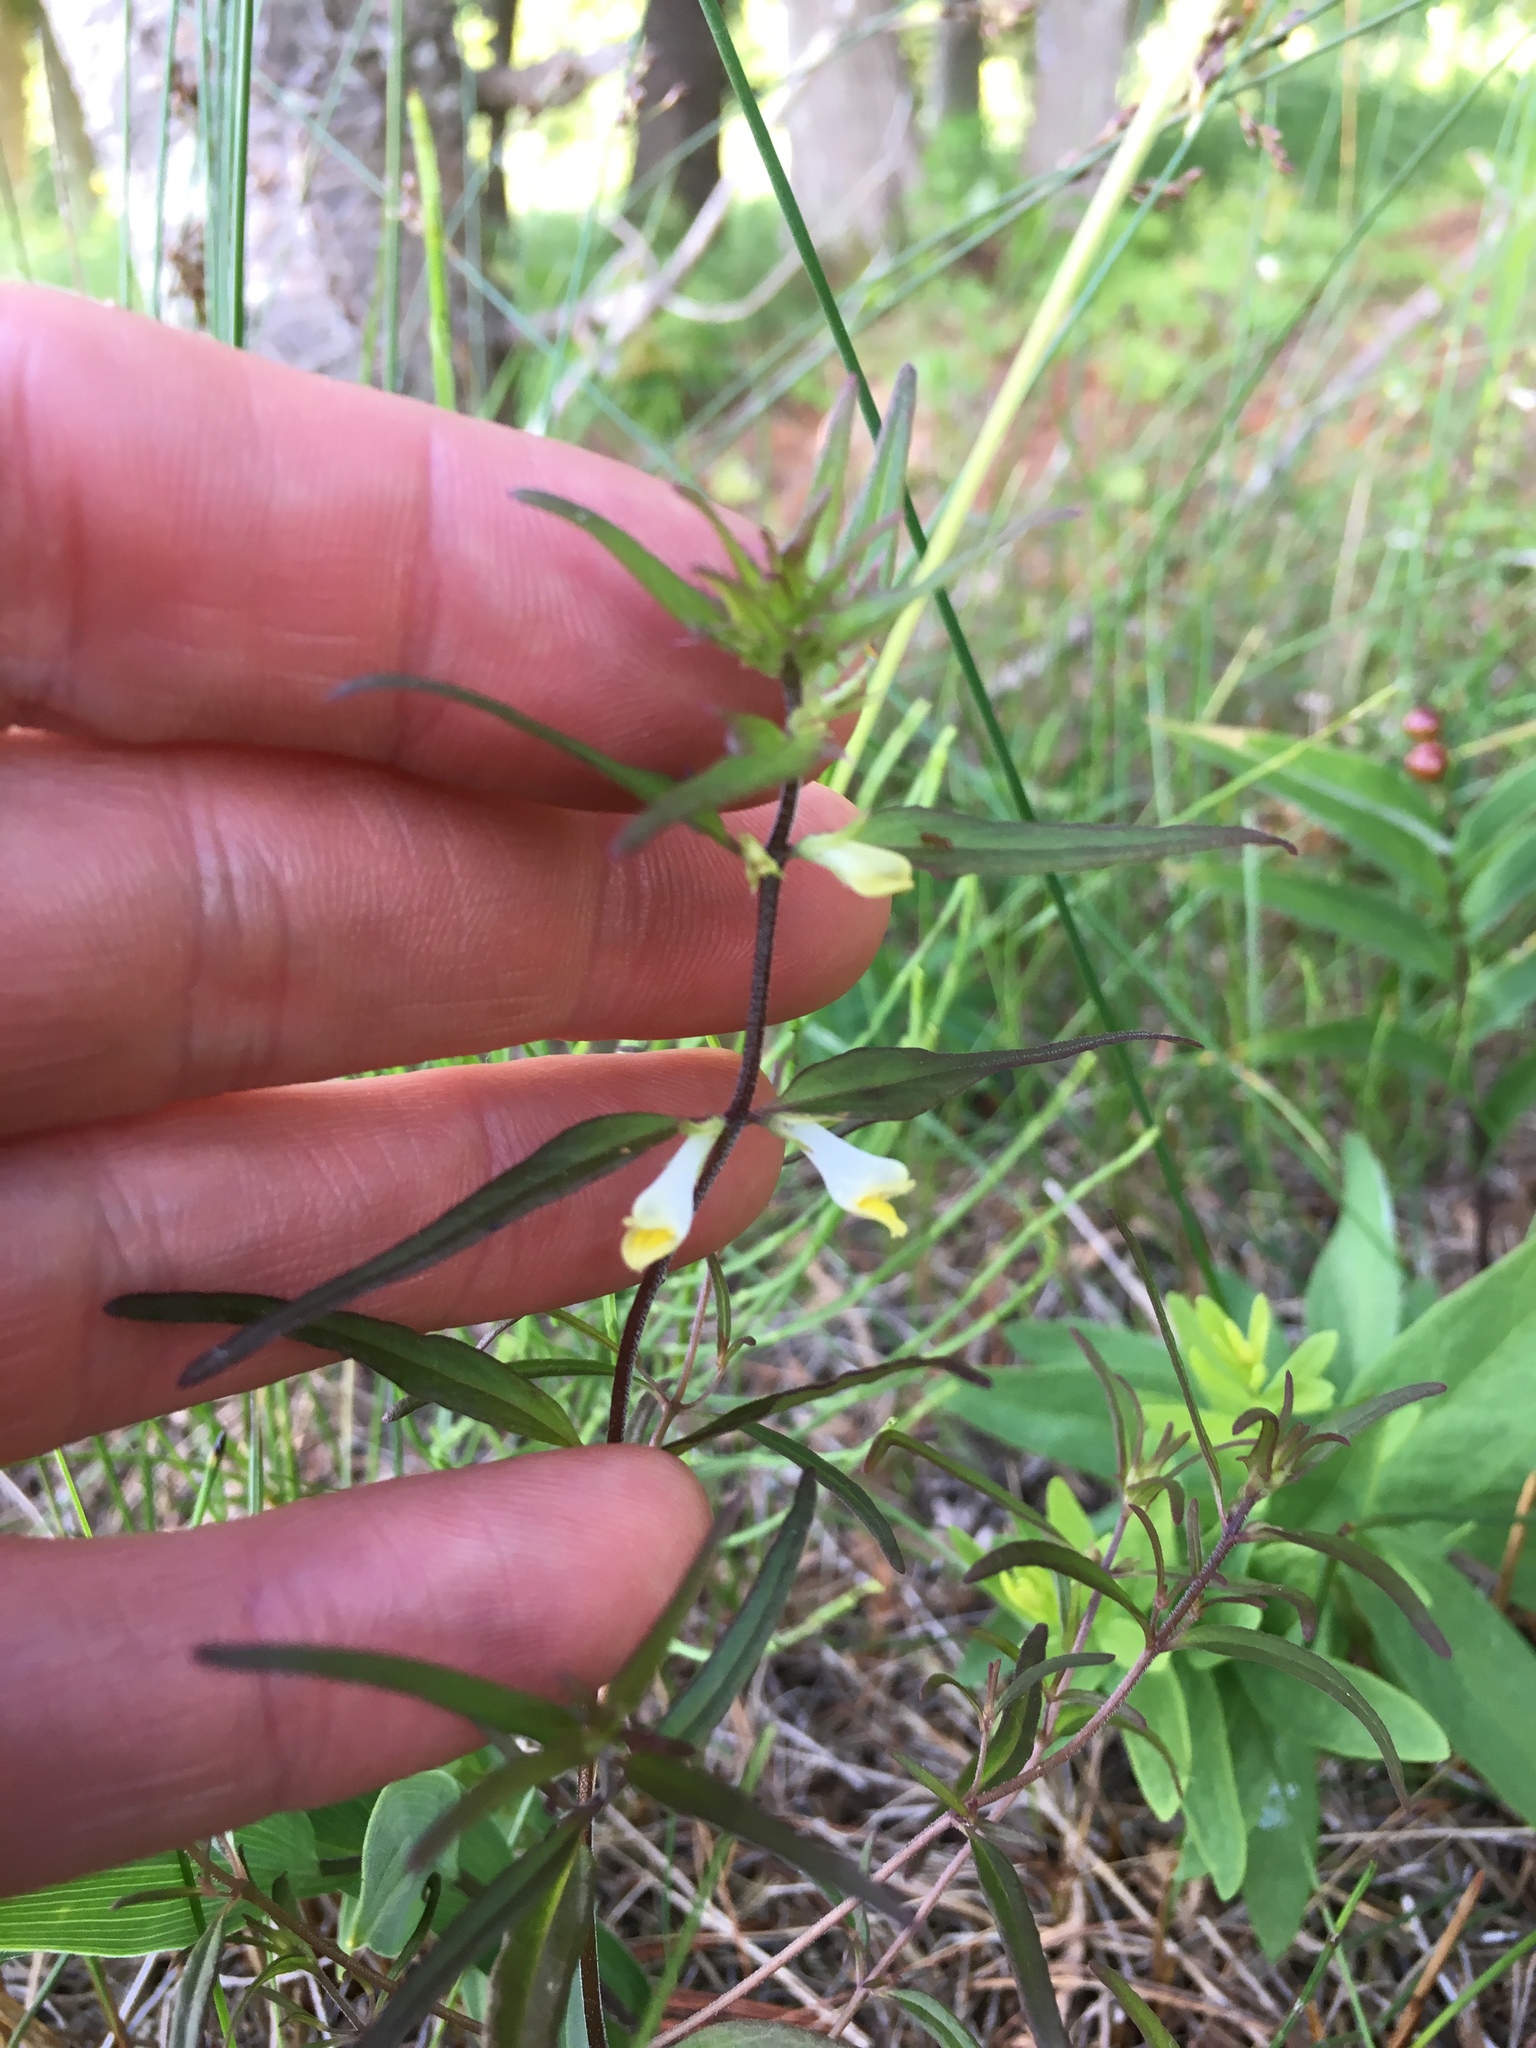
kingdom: Plantae
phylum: Tracheophyta
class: Magnoliopsida
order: Lamiales
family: Orobanchaceae
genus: Melampyrum
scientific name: Melampyrum lineare
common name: American cow-wheat
